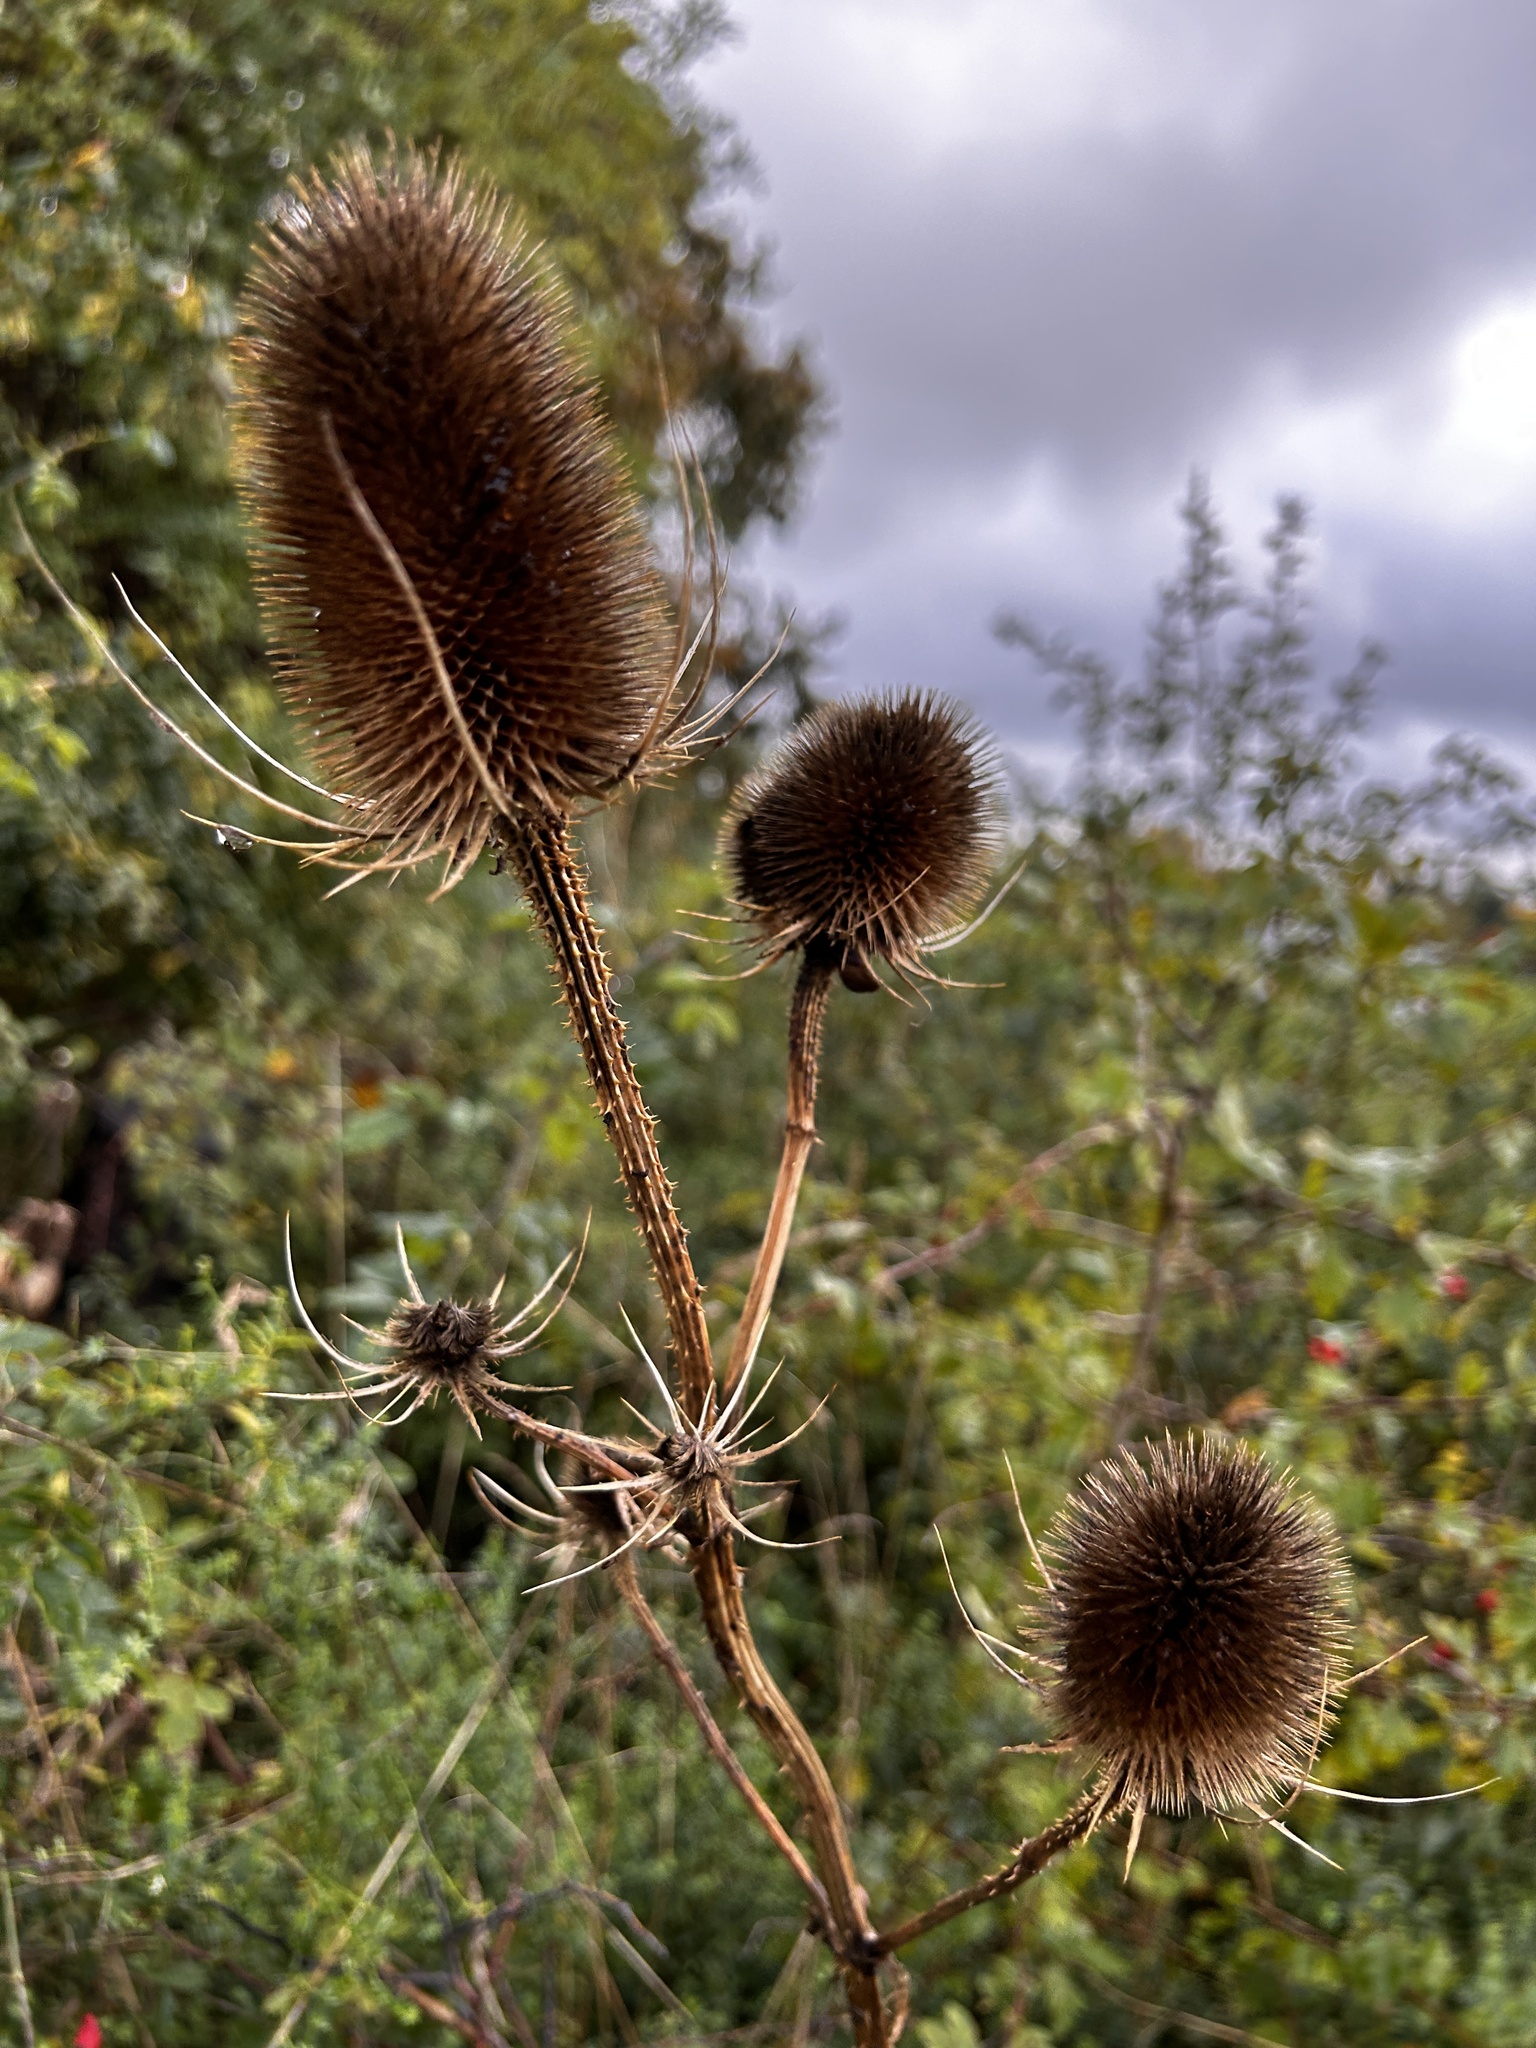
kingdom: Plantae
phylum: Tracheophyta
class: Magnoliopsida
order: Dipsacales
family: Caprifoliaceae
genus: Dipsacus
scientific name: Dipsacus fullonum
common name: Teasel
